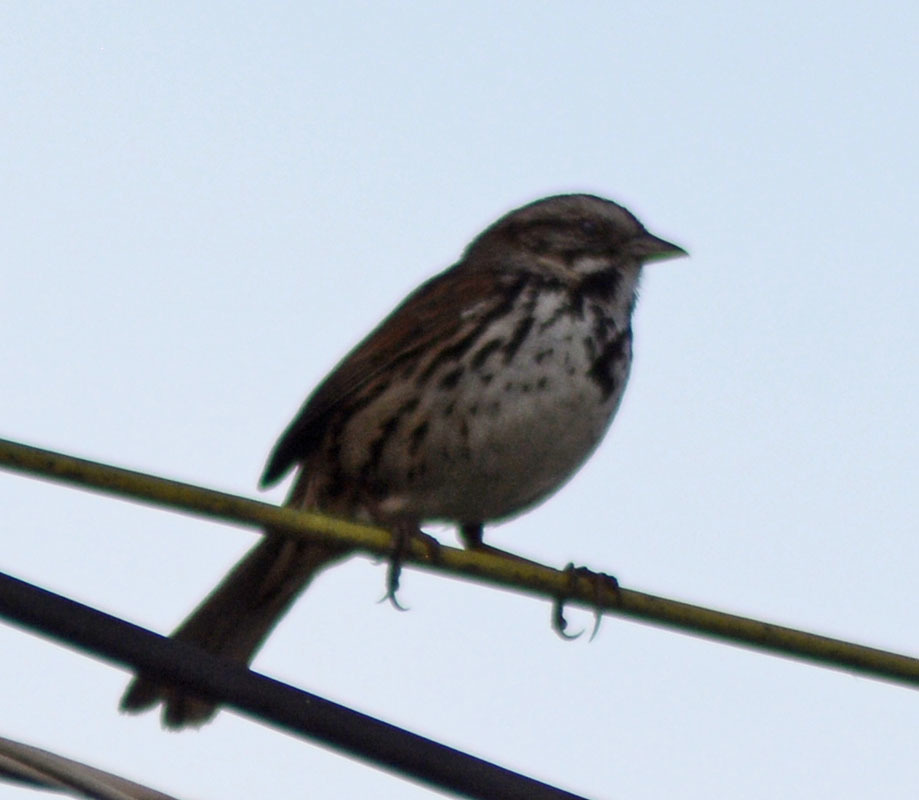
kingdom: Animalia
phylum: Chordata
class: Aves
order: Passeriformes
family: Passerellidae
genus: Melospiza
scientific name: Melospiza melodia
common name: Song sparrow
